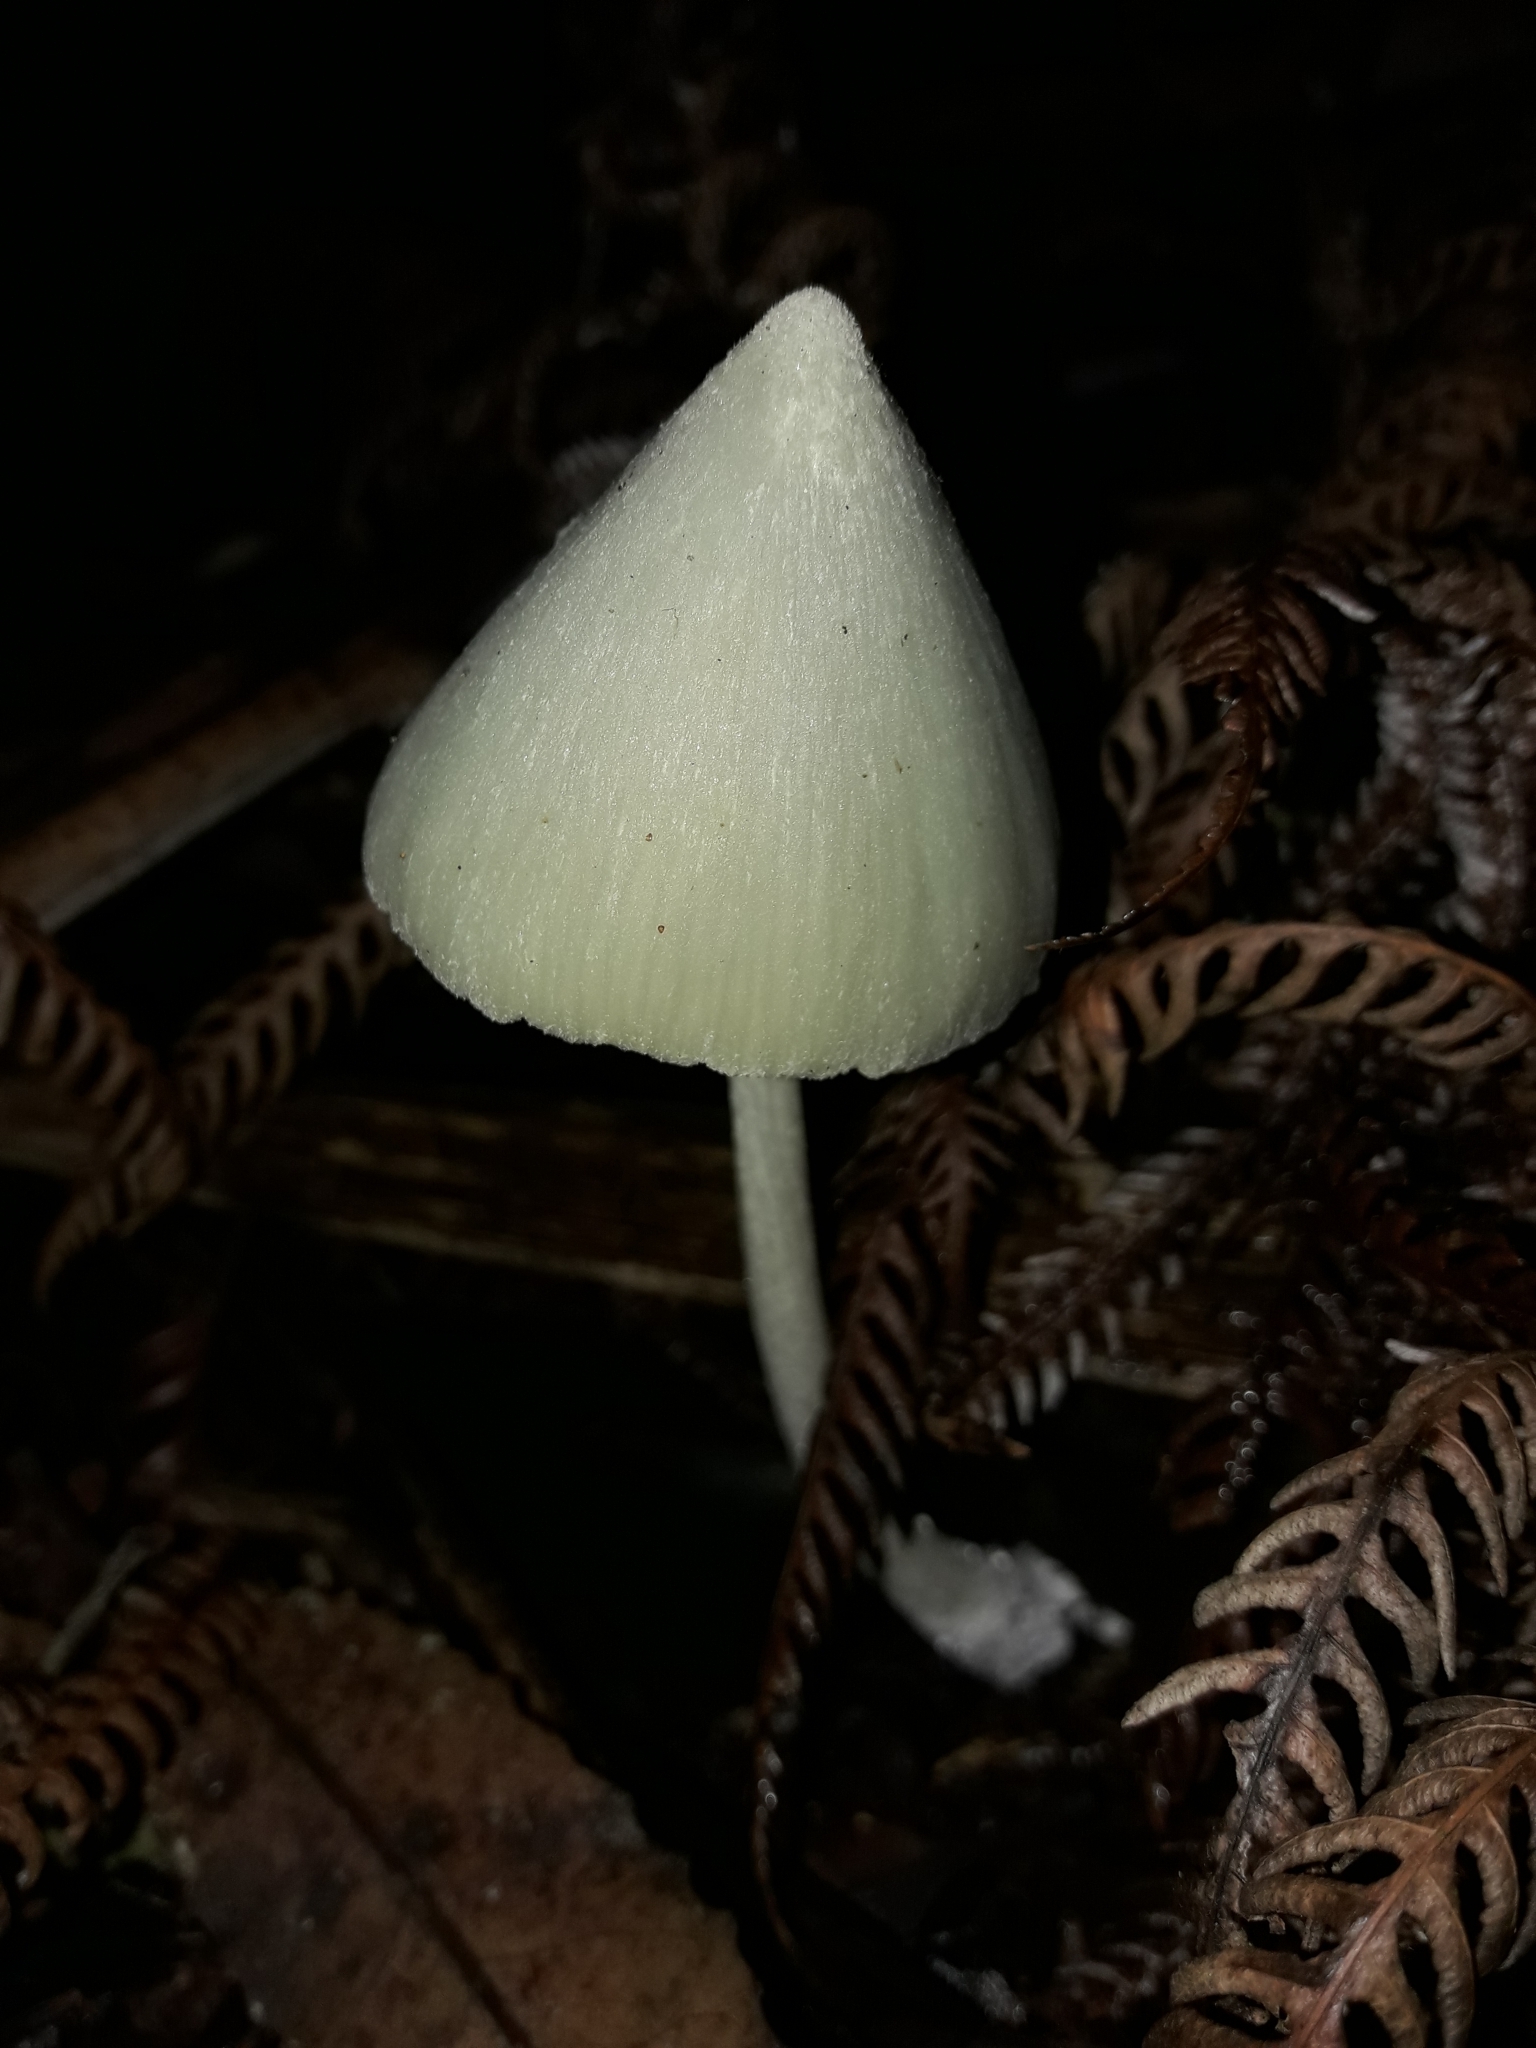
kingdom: Fungi
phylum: Basidiomycota
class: Agaricomycetes
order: Agaricales
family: Entolomataceae
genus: Entoloma
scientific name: Entoloma canoconicum
